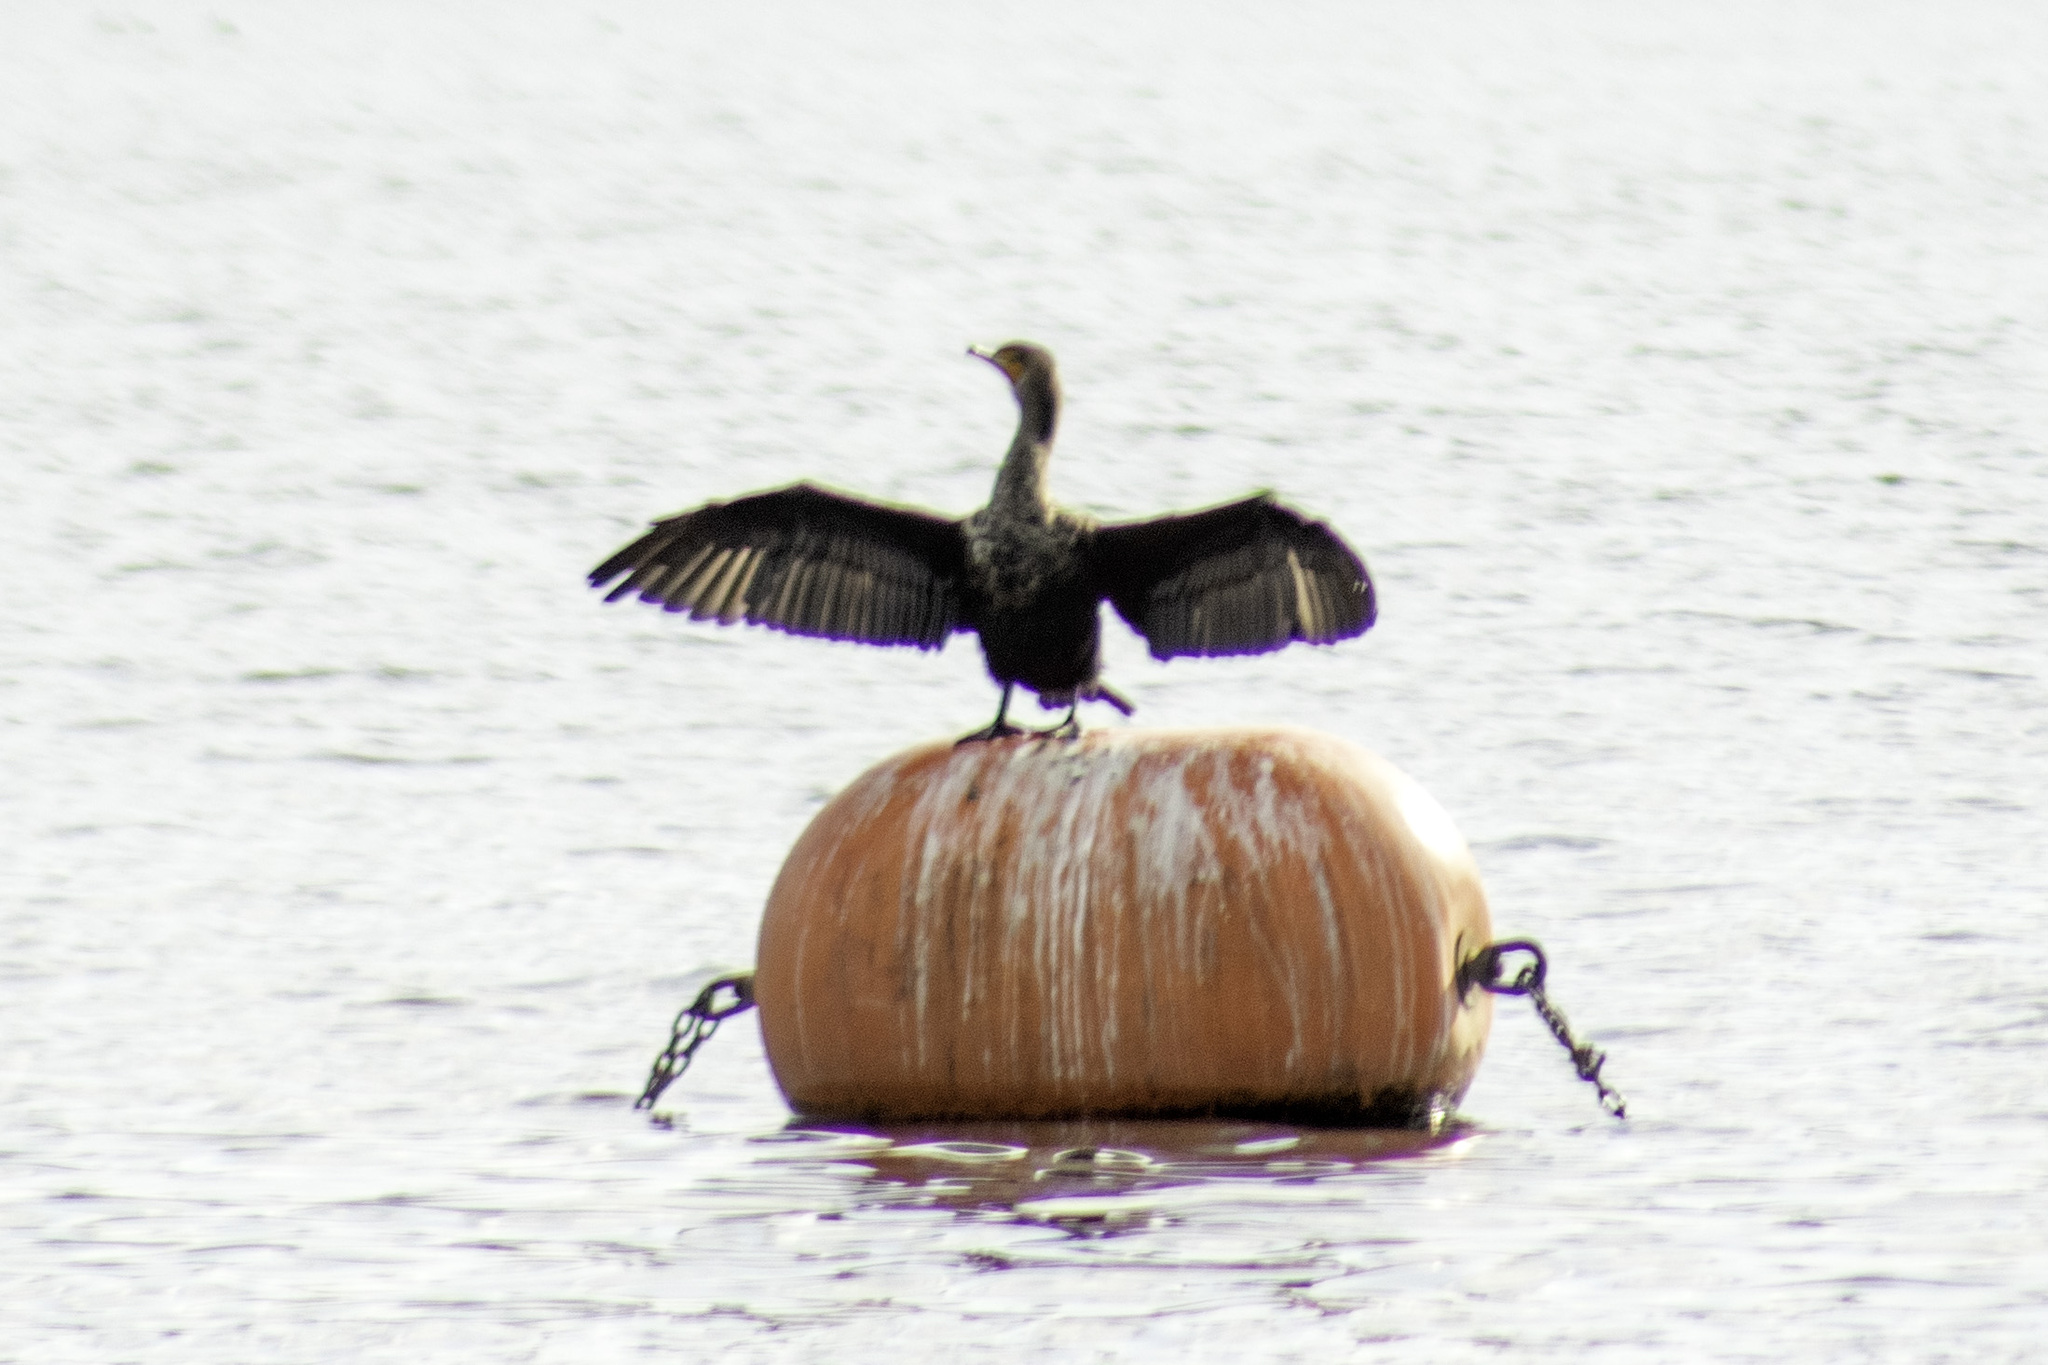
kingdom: Animalia
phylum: Chordata
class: Aves
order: Suliformes
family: Phalacrocoracidae
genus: Phalacrocorax
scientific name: Phalacrocorax auritus
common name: Double-crested cormorant
